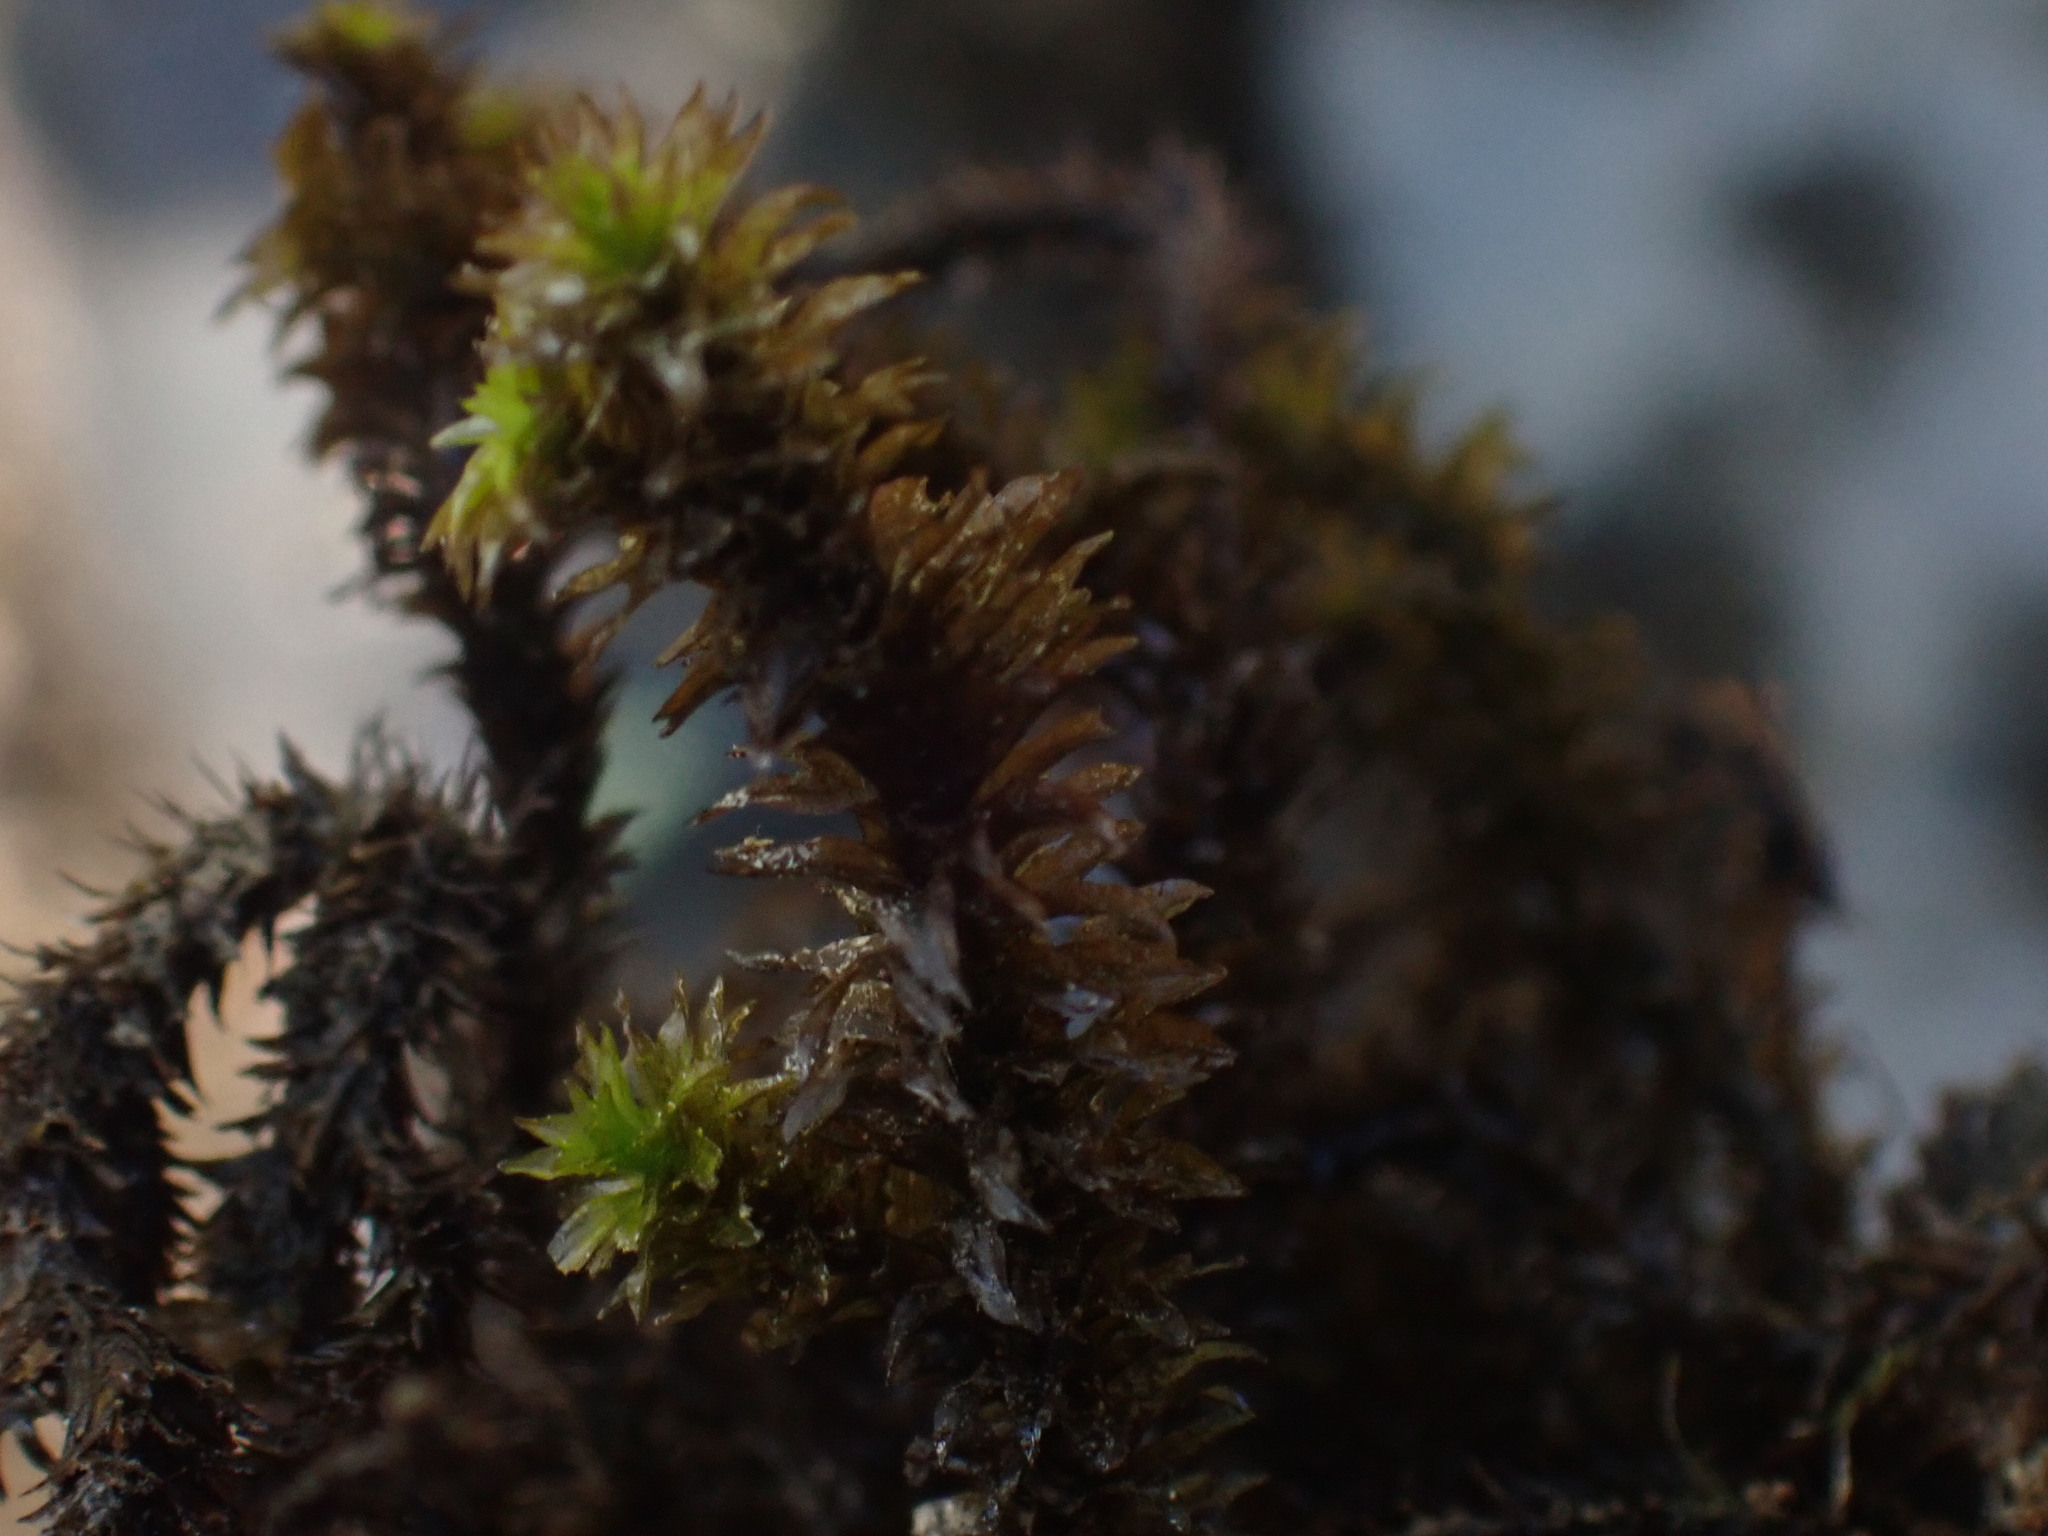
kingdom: Plantae
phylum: Bryophyta
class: Bryopsida
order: Scouleriales
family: Scouleriaceae
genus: Scouleria
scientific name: Scouleria aquatica
